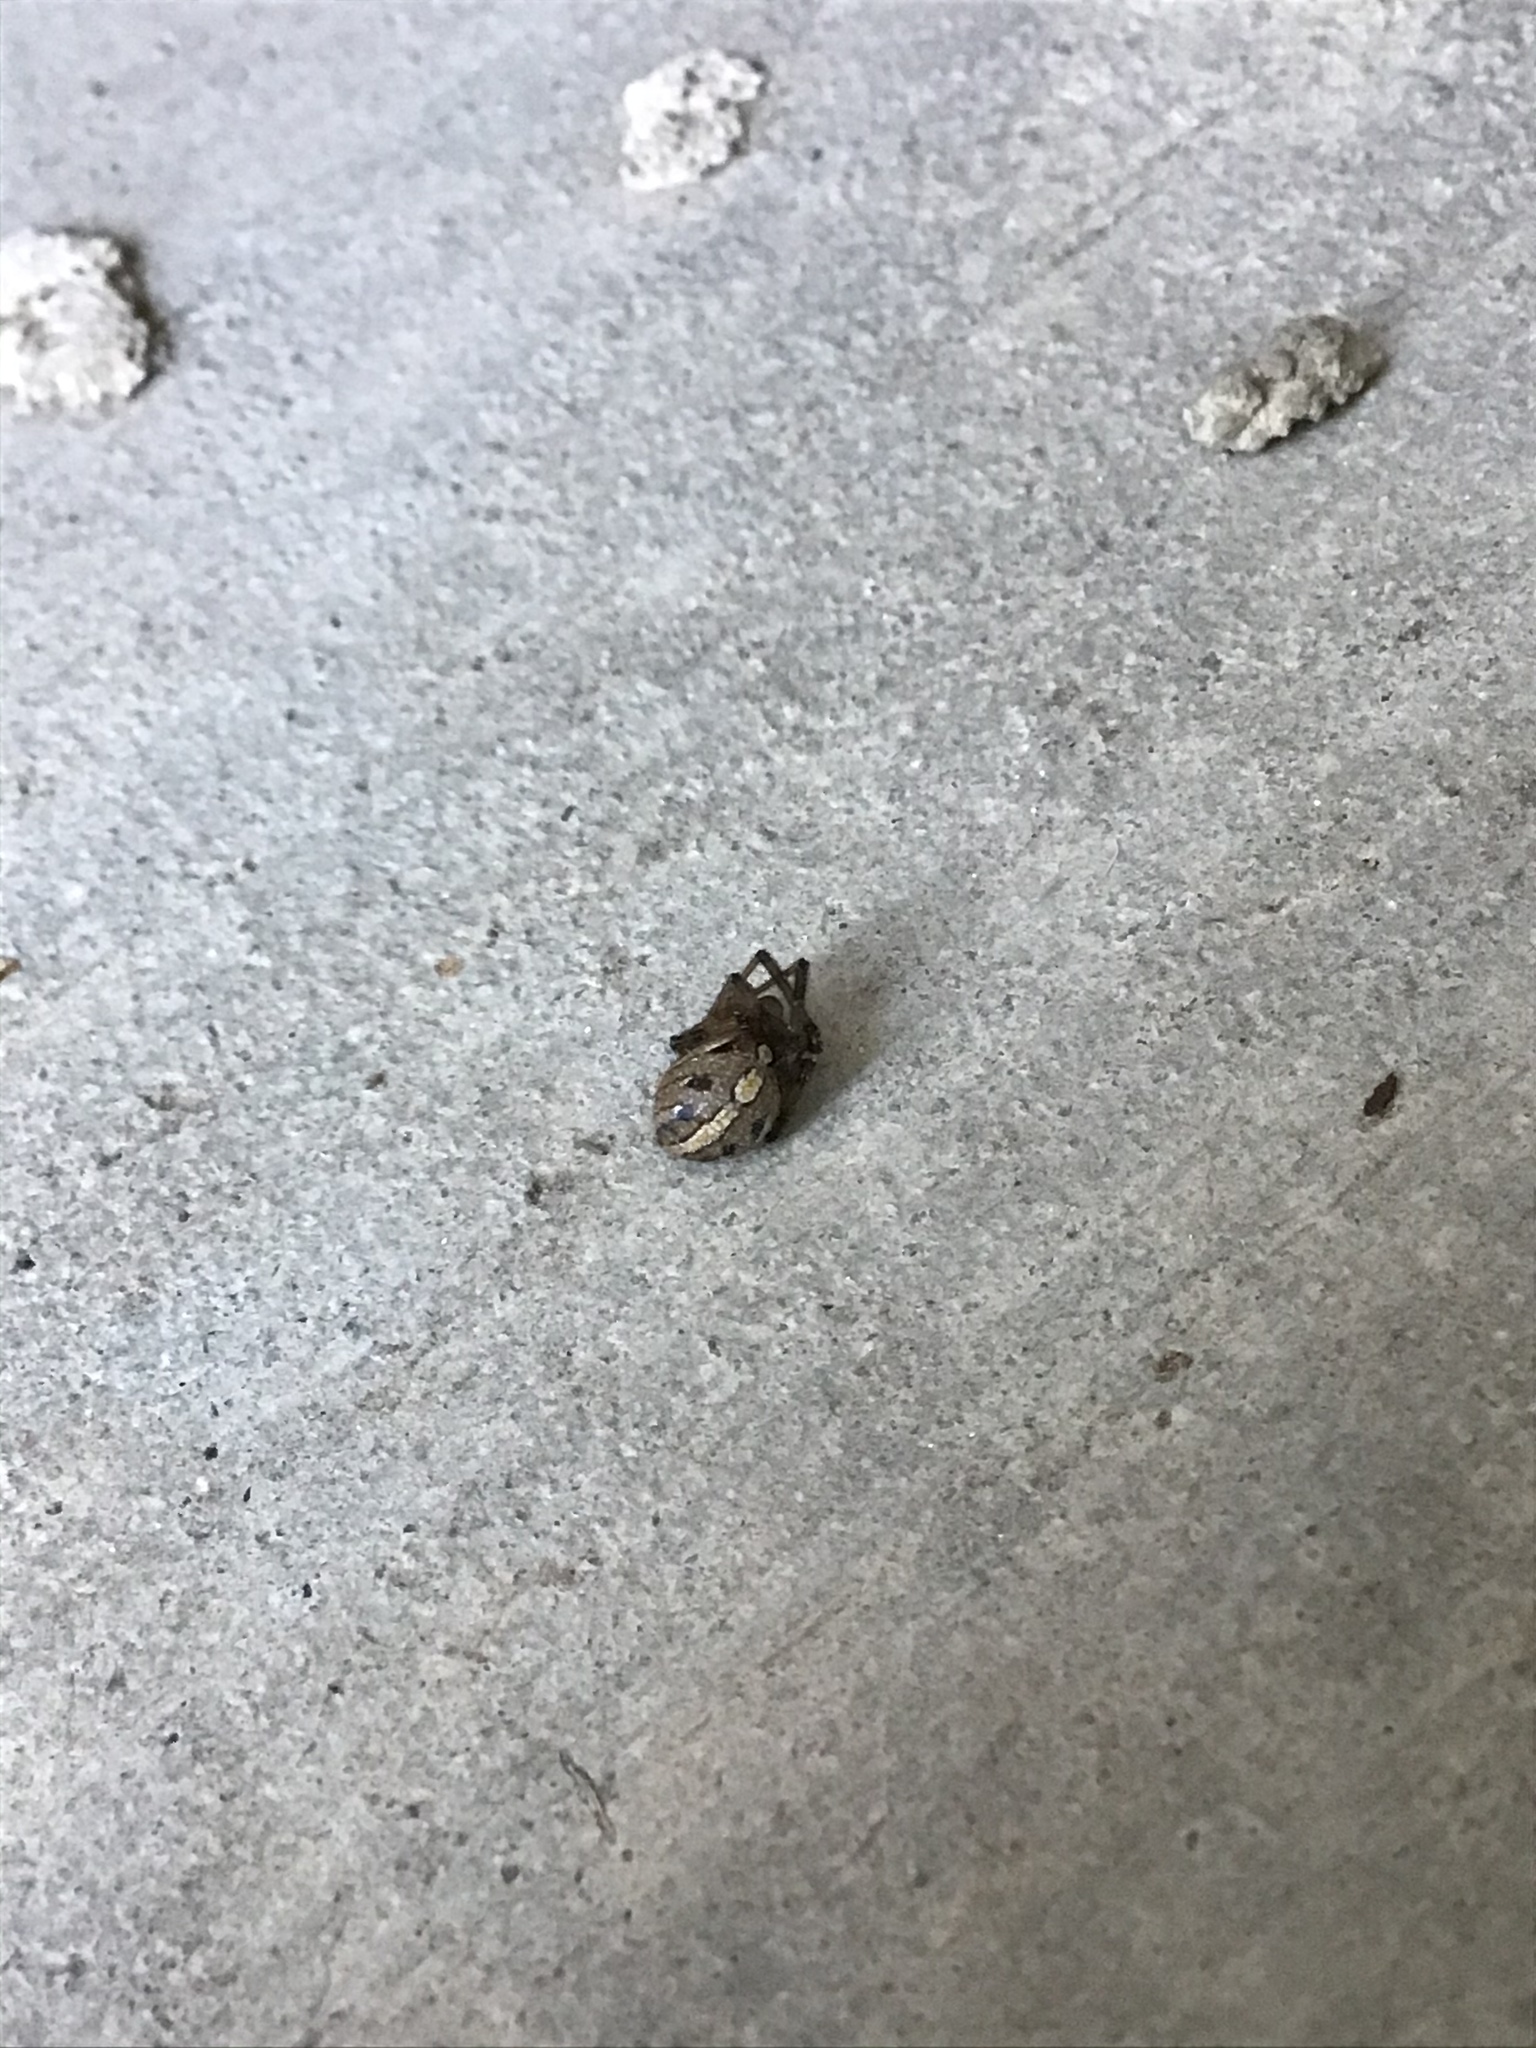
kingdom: Animalia
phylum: Arthropoda
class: Arachnida
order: Araneae
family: Theridiidae
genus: Latrodectus
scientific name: Latrodectus hesperus
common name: Western black widow
